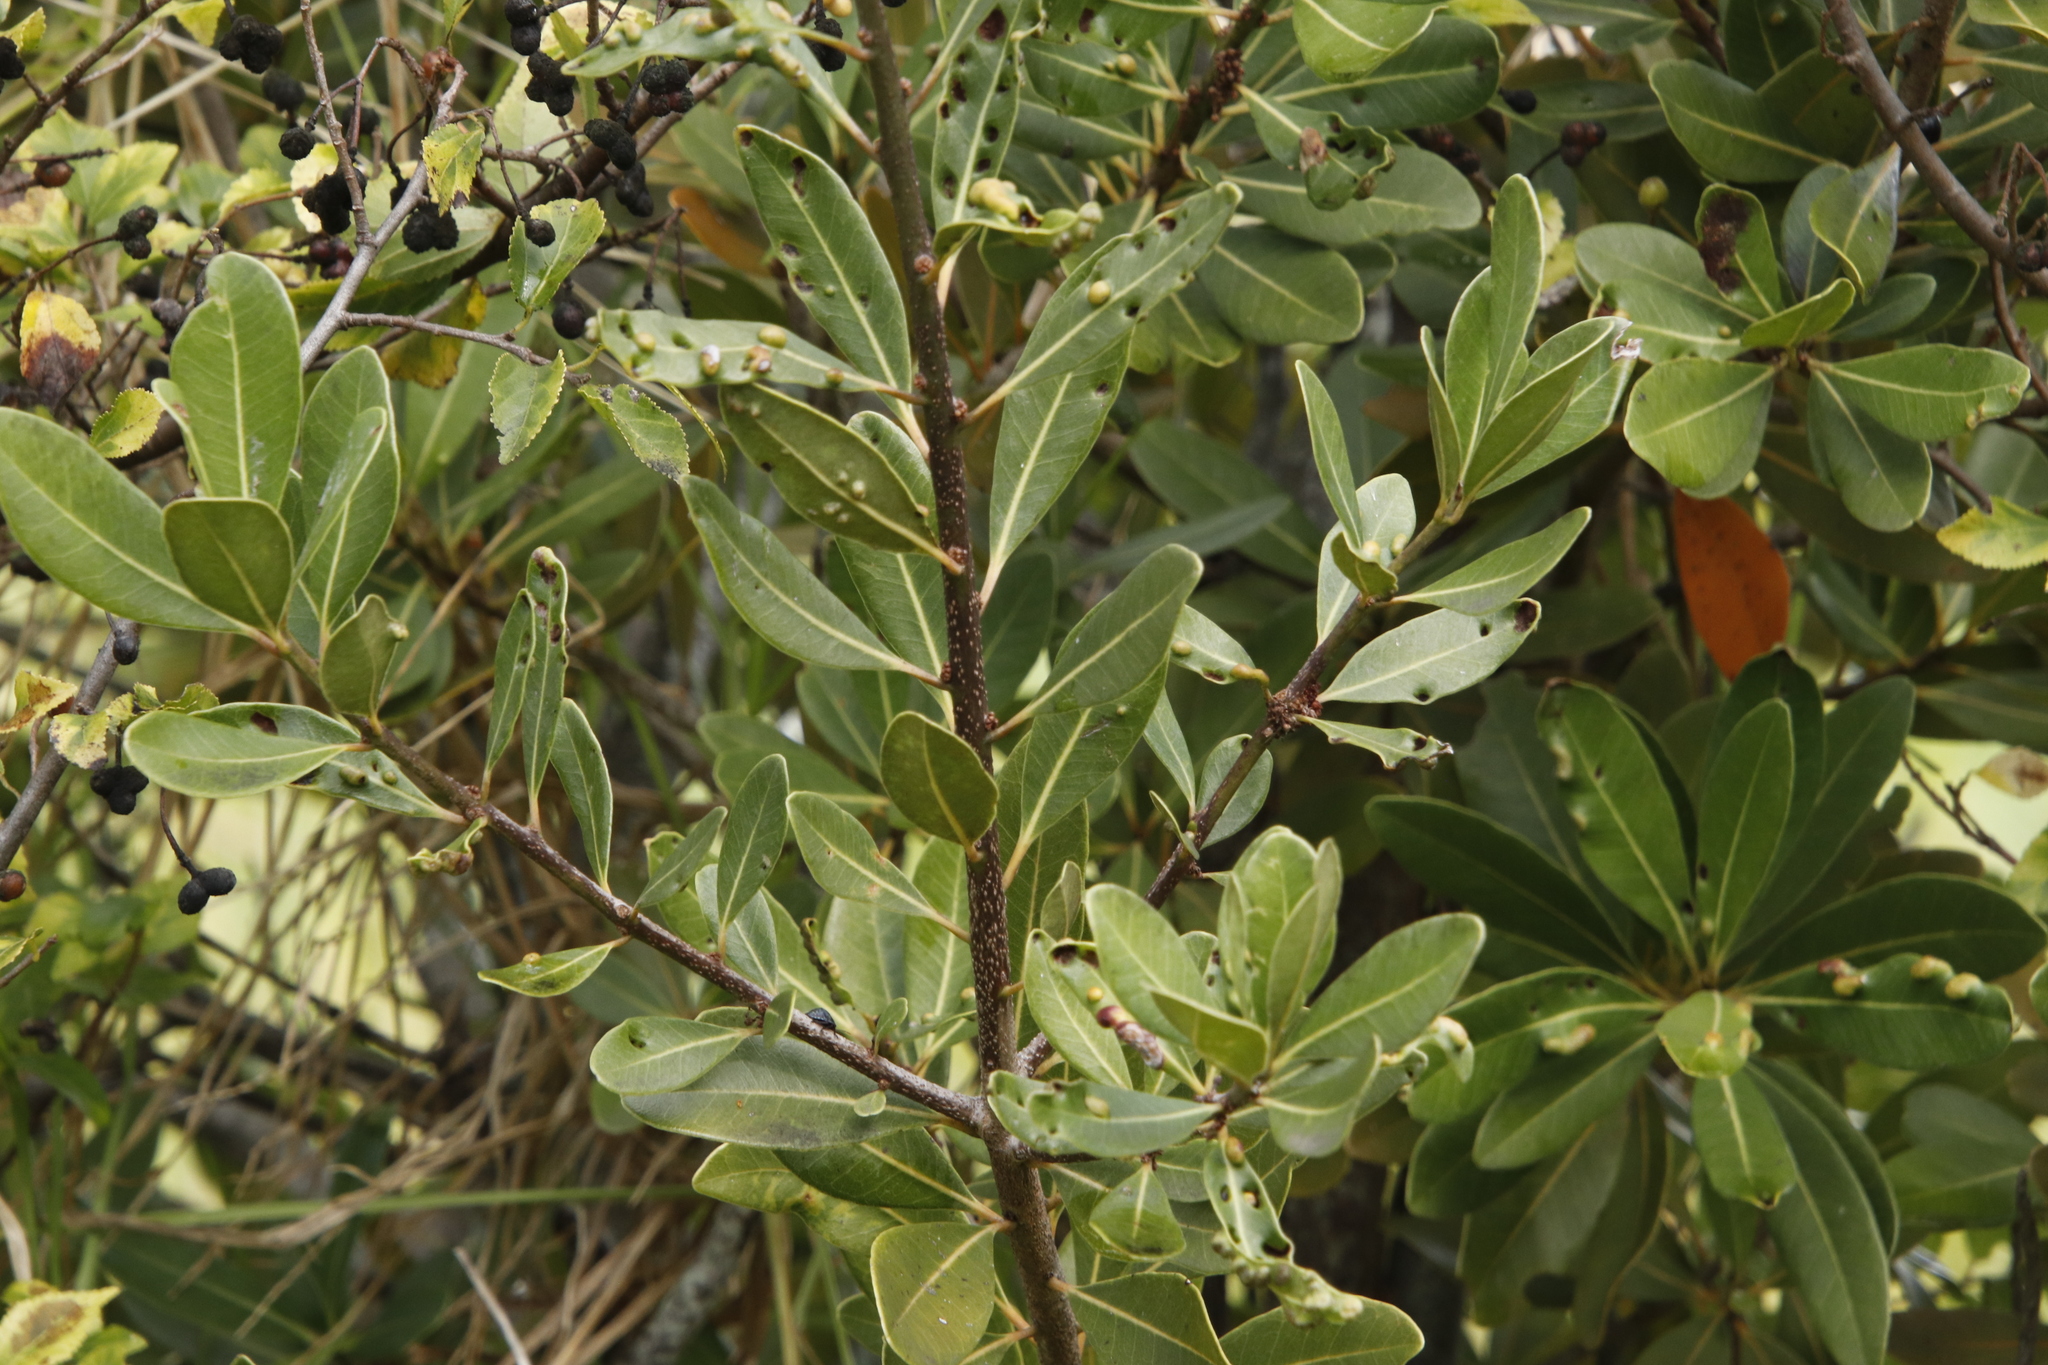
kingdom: Plantae
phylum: Tracheophyta
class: Magnoliopsida
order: Ericales
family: Sapotaceae
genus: Sideroxylon
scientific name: Sideroxylon inerme
